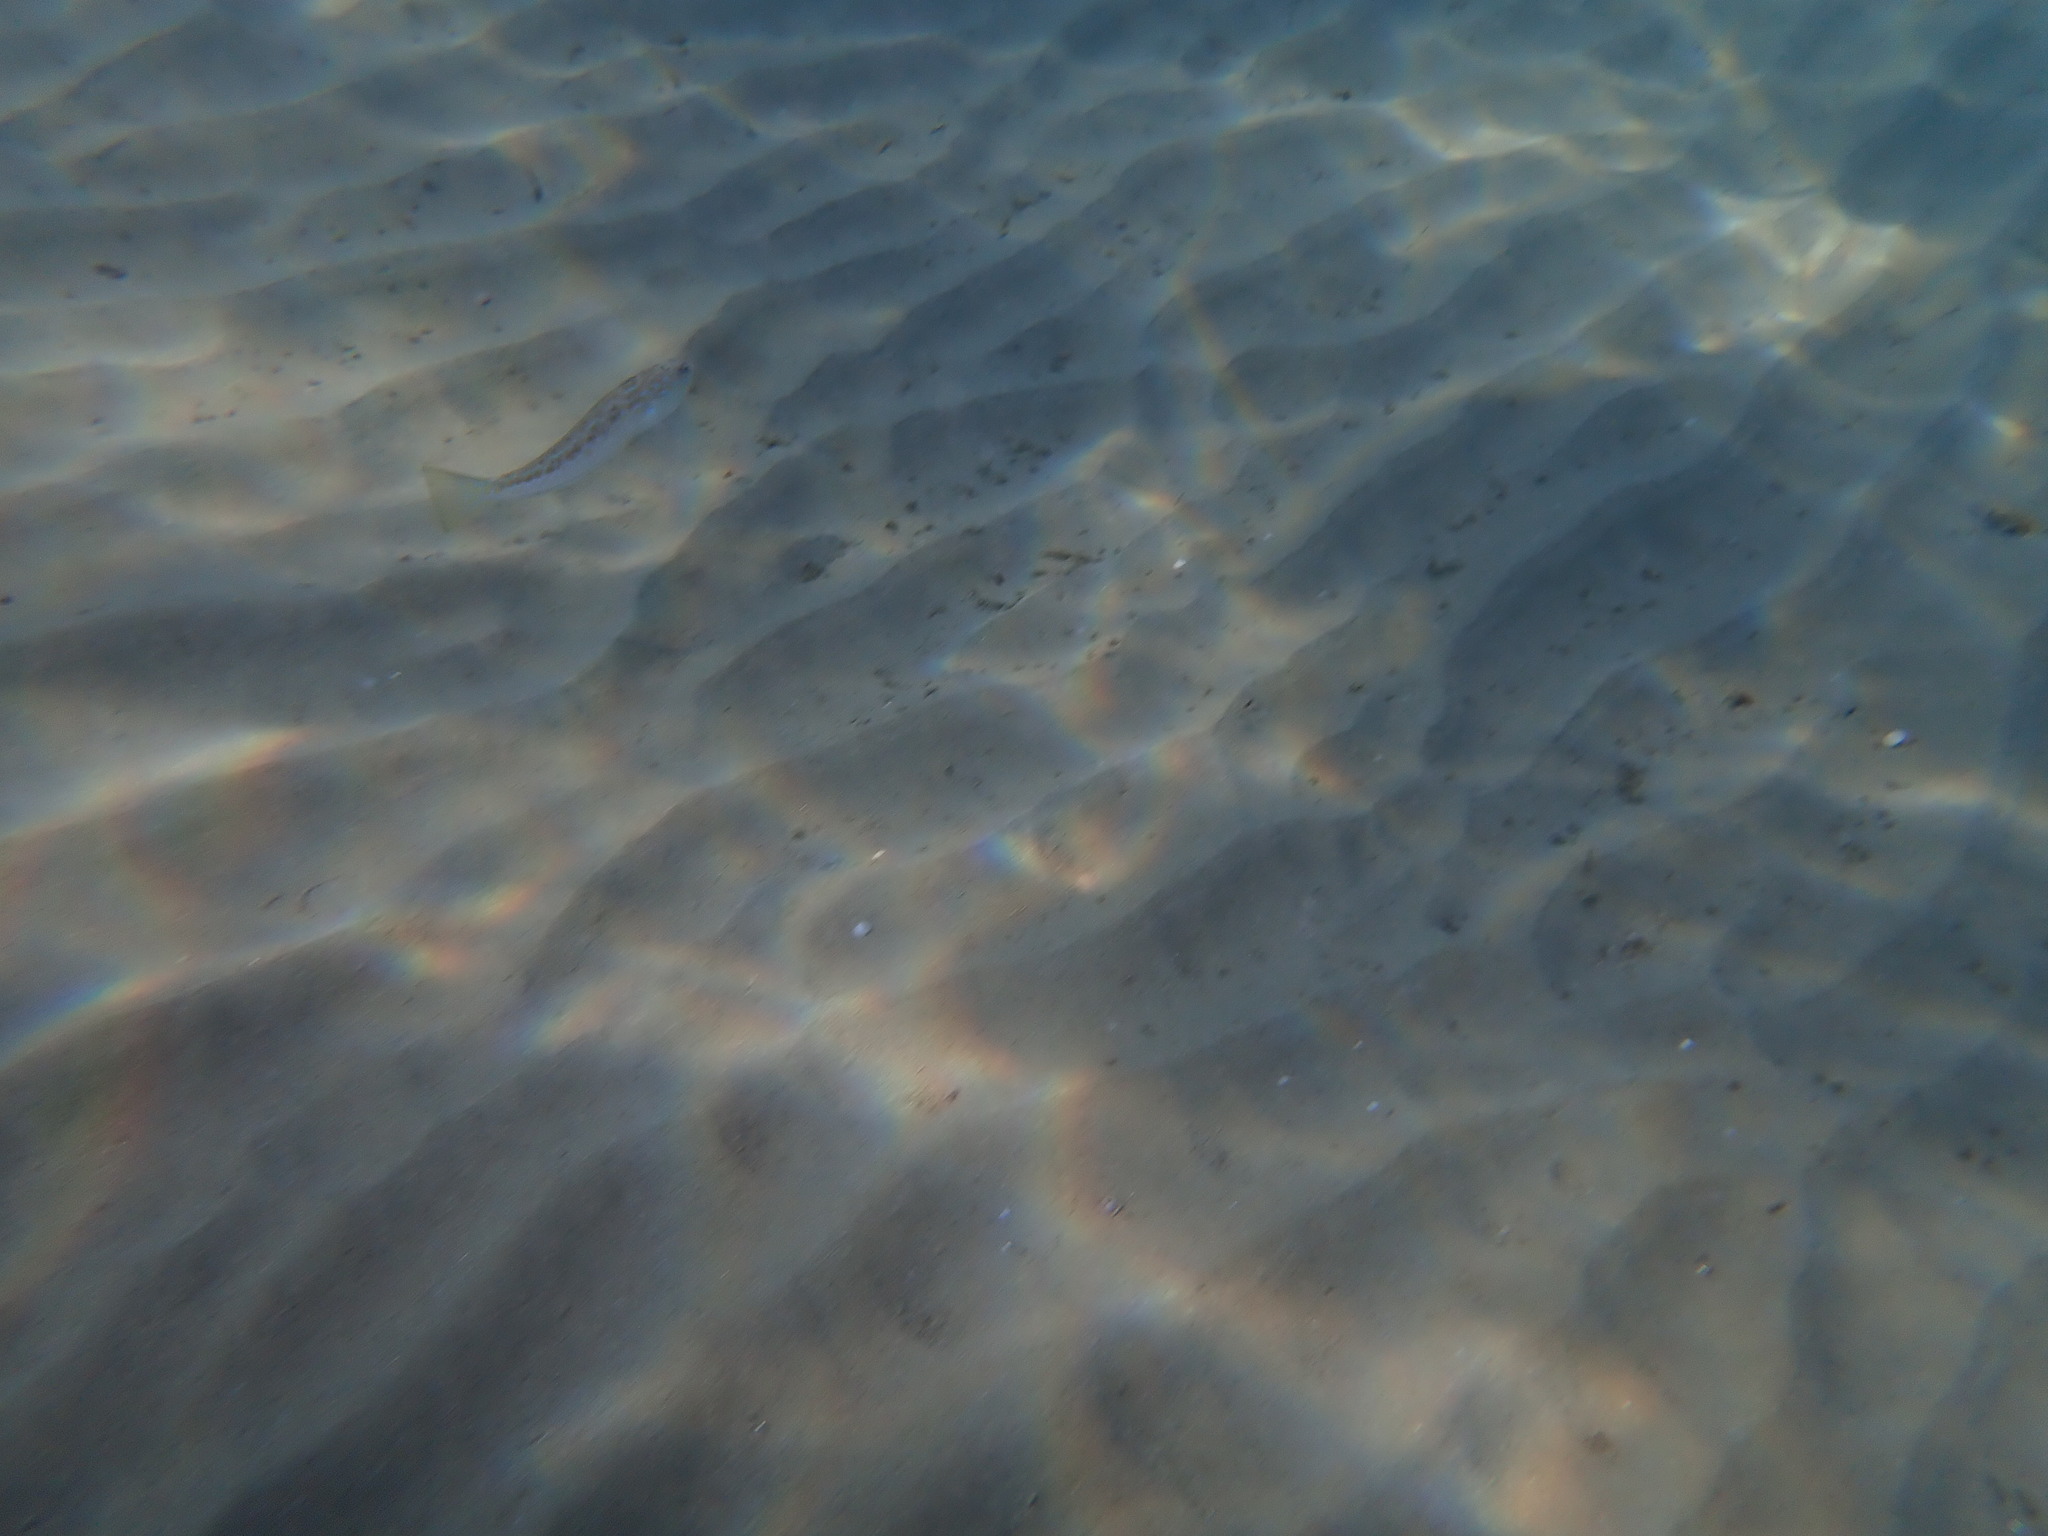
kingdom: Animalia
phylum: Chordata
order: Perciformes
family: Trachinidae
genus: Trachinus
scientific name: Trachinus draco
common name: Greater weever
